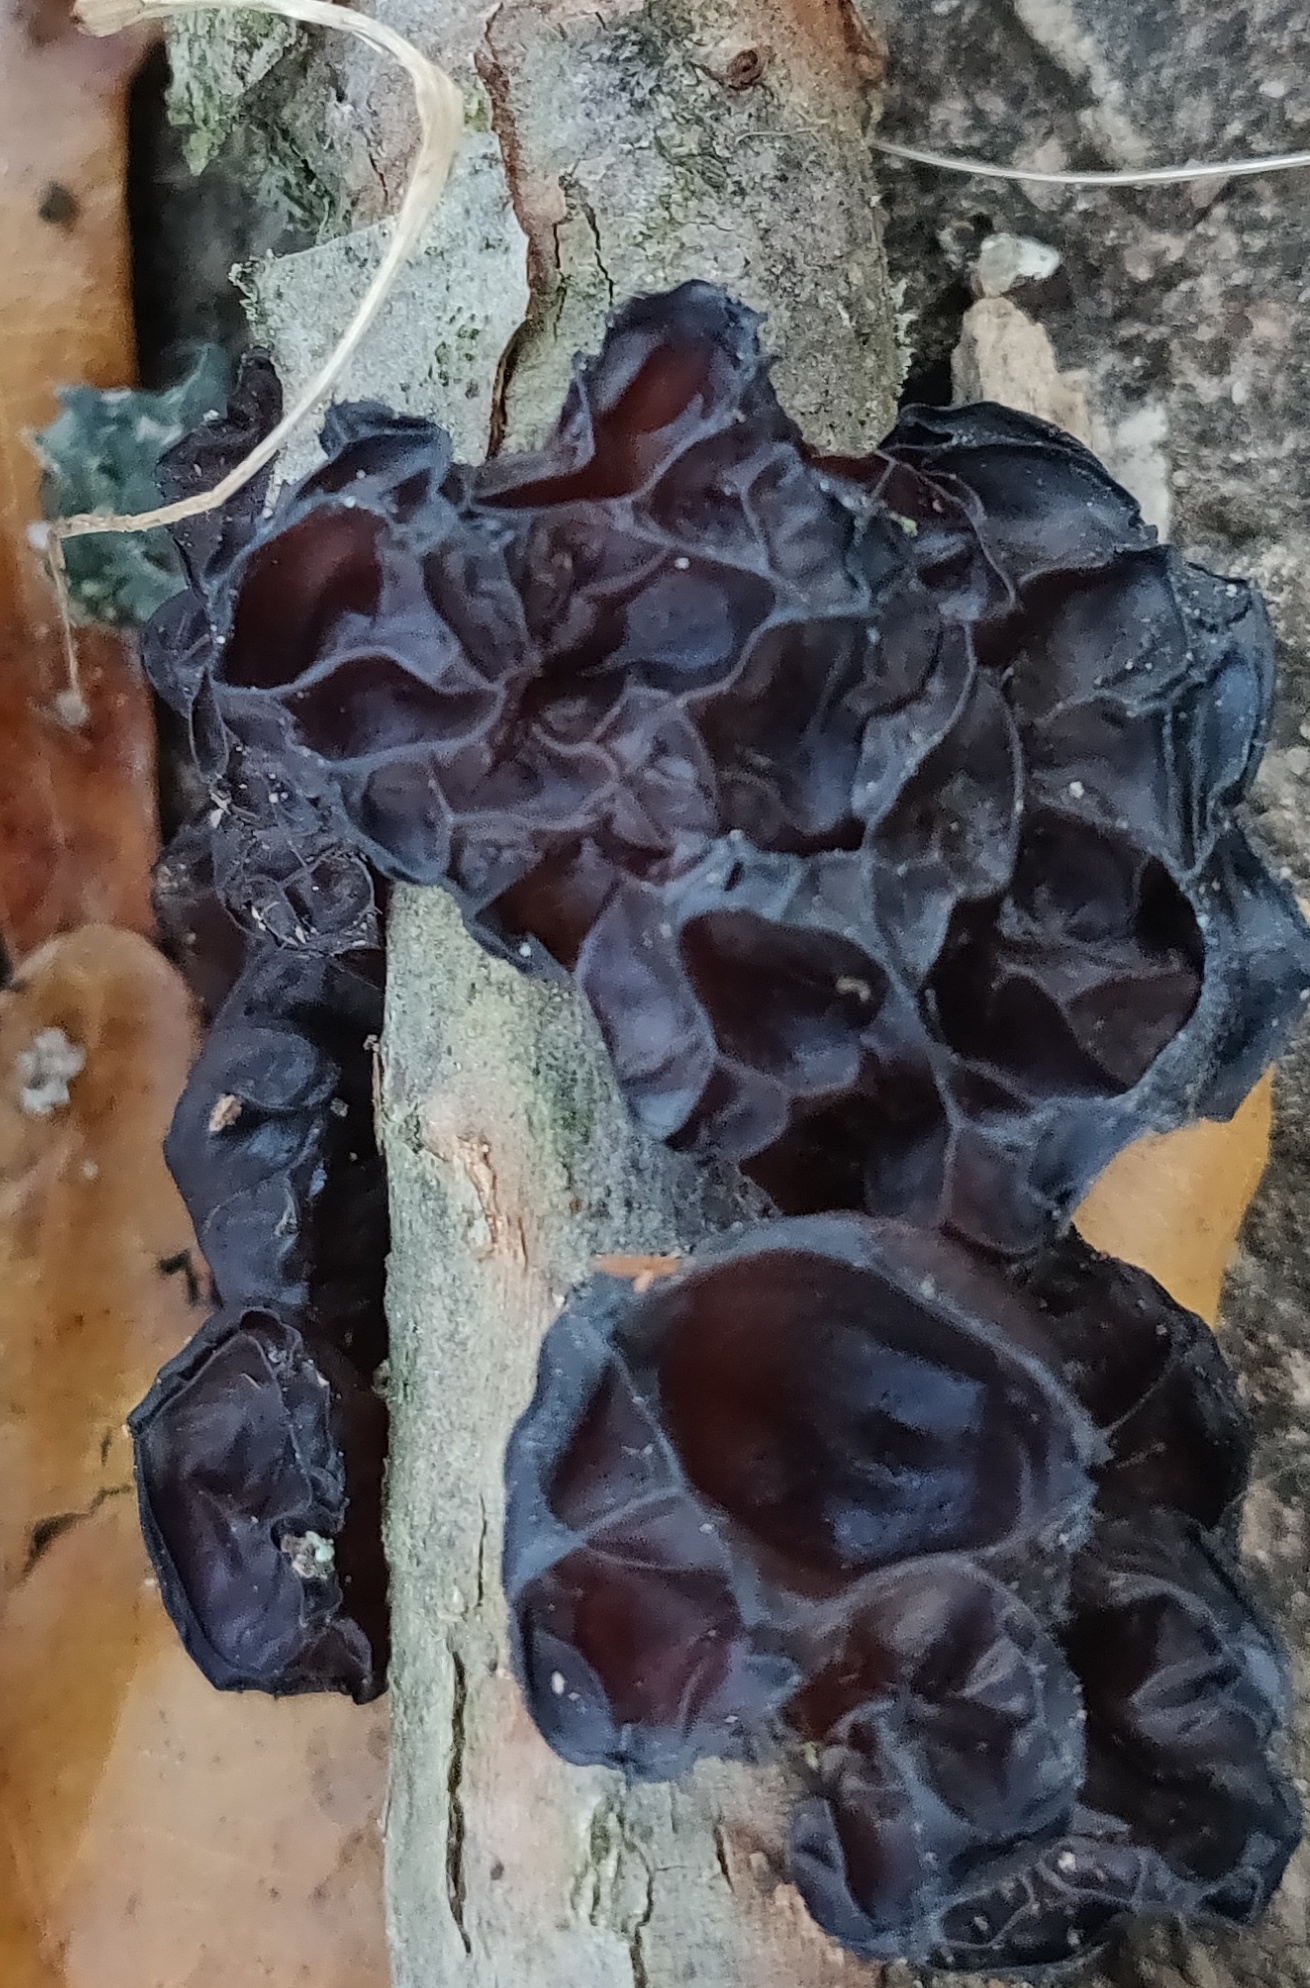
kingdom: Fungi
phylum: Basidiomycota
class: Agaricomycetes
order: Auriculariales
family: Auriculariaceae
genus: Exidia
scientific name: Exidia
